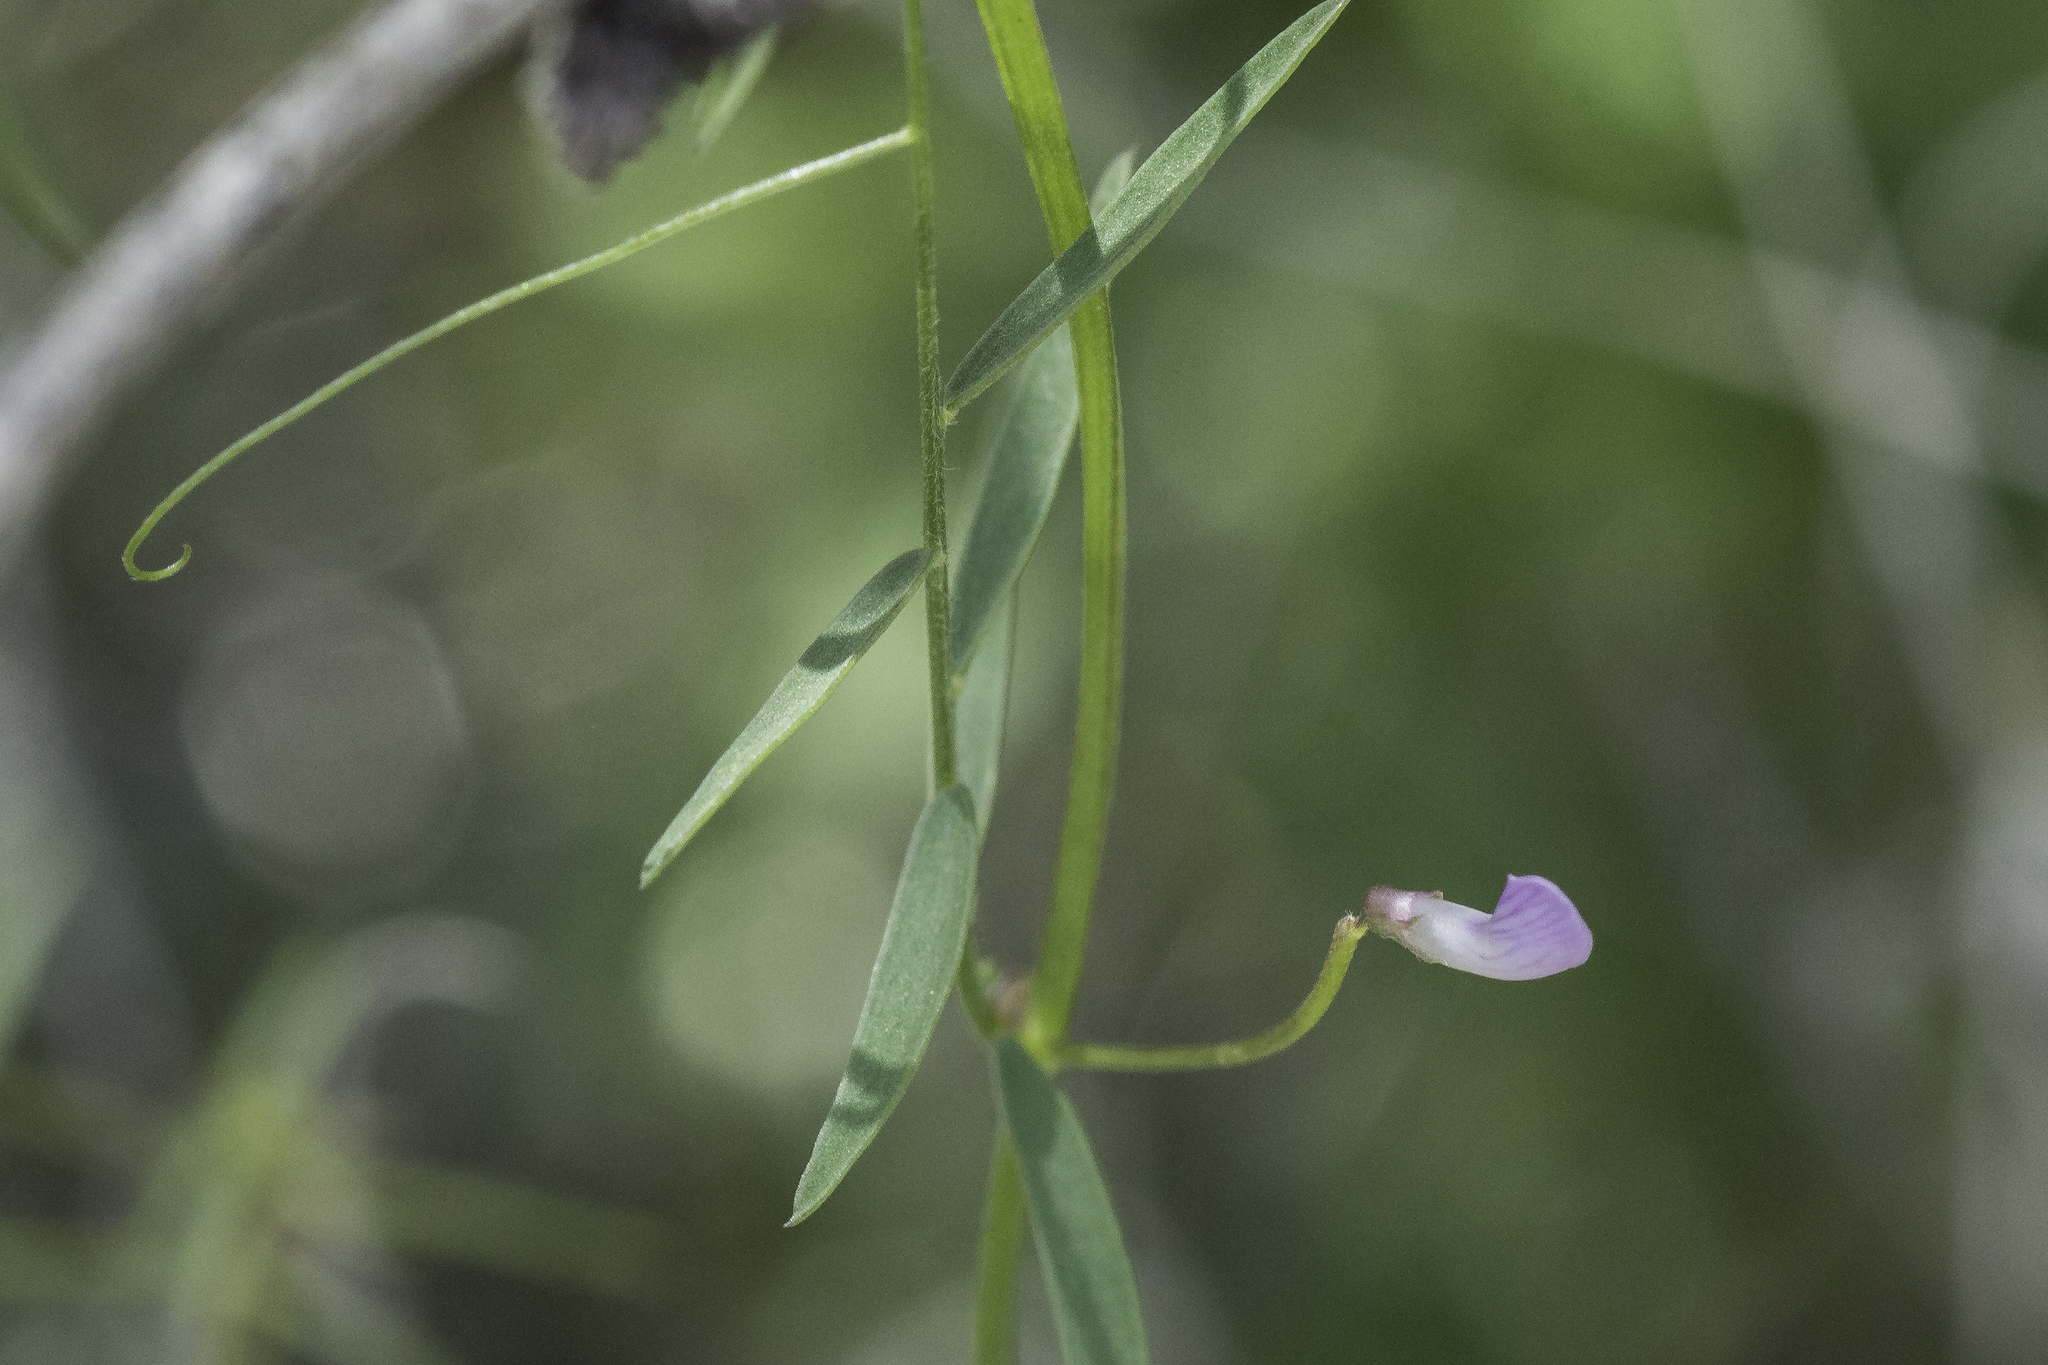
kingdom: Plantae
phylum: Tracheophyta
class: Magnoliopsida
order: Fabales
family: Fabaceae
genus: Vicia
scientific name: Vicia ludoviciana
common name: Louisiana vetch
